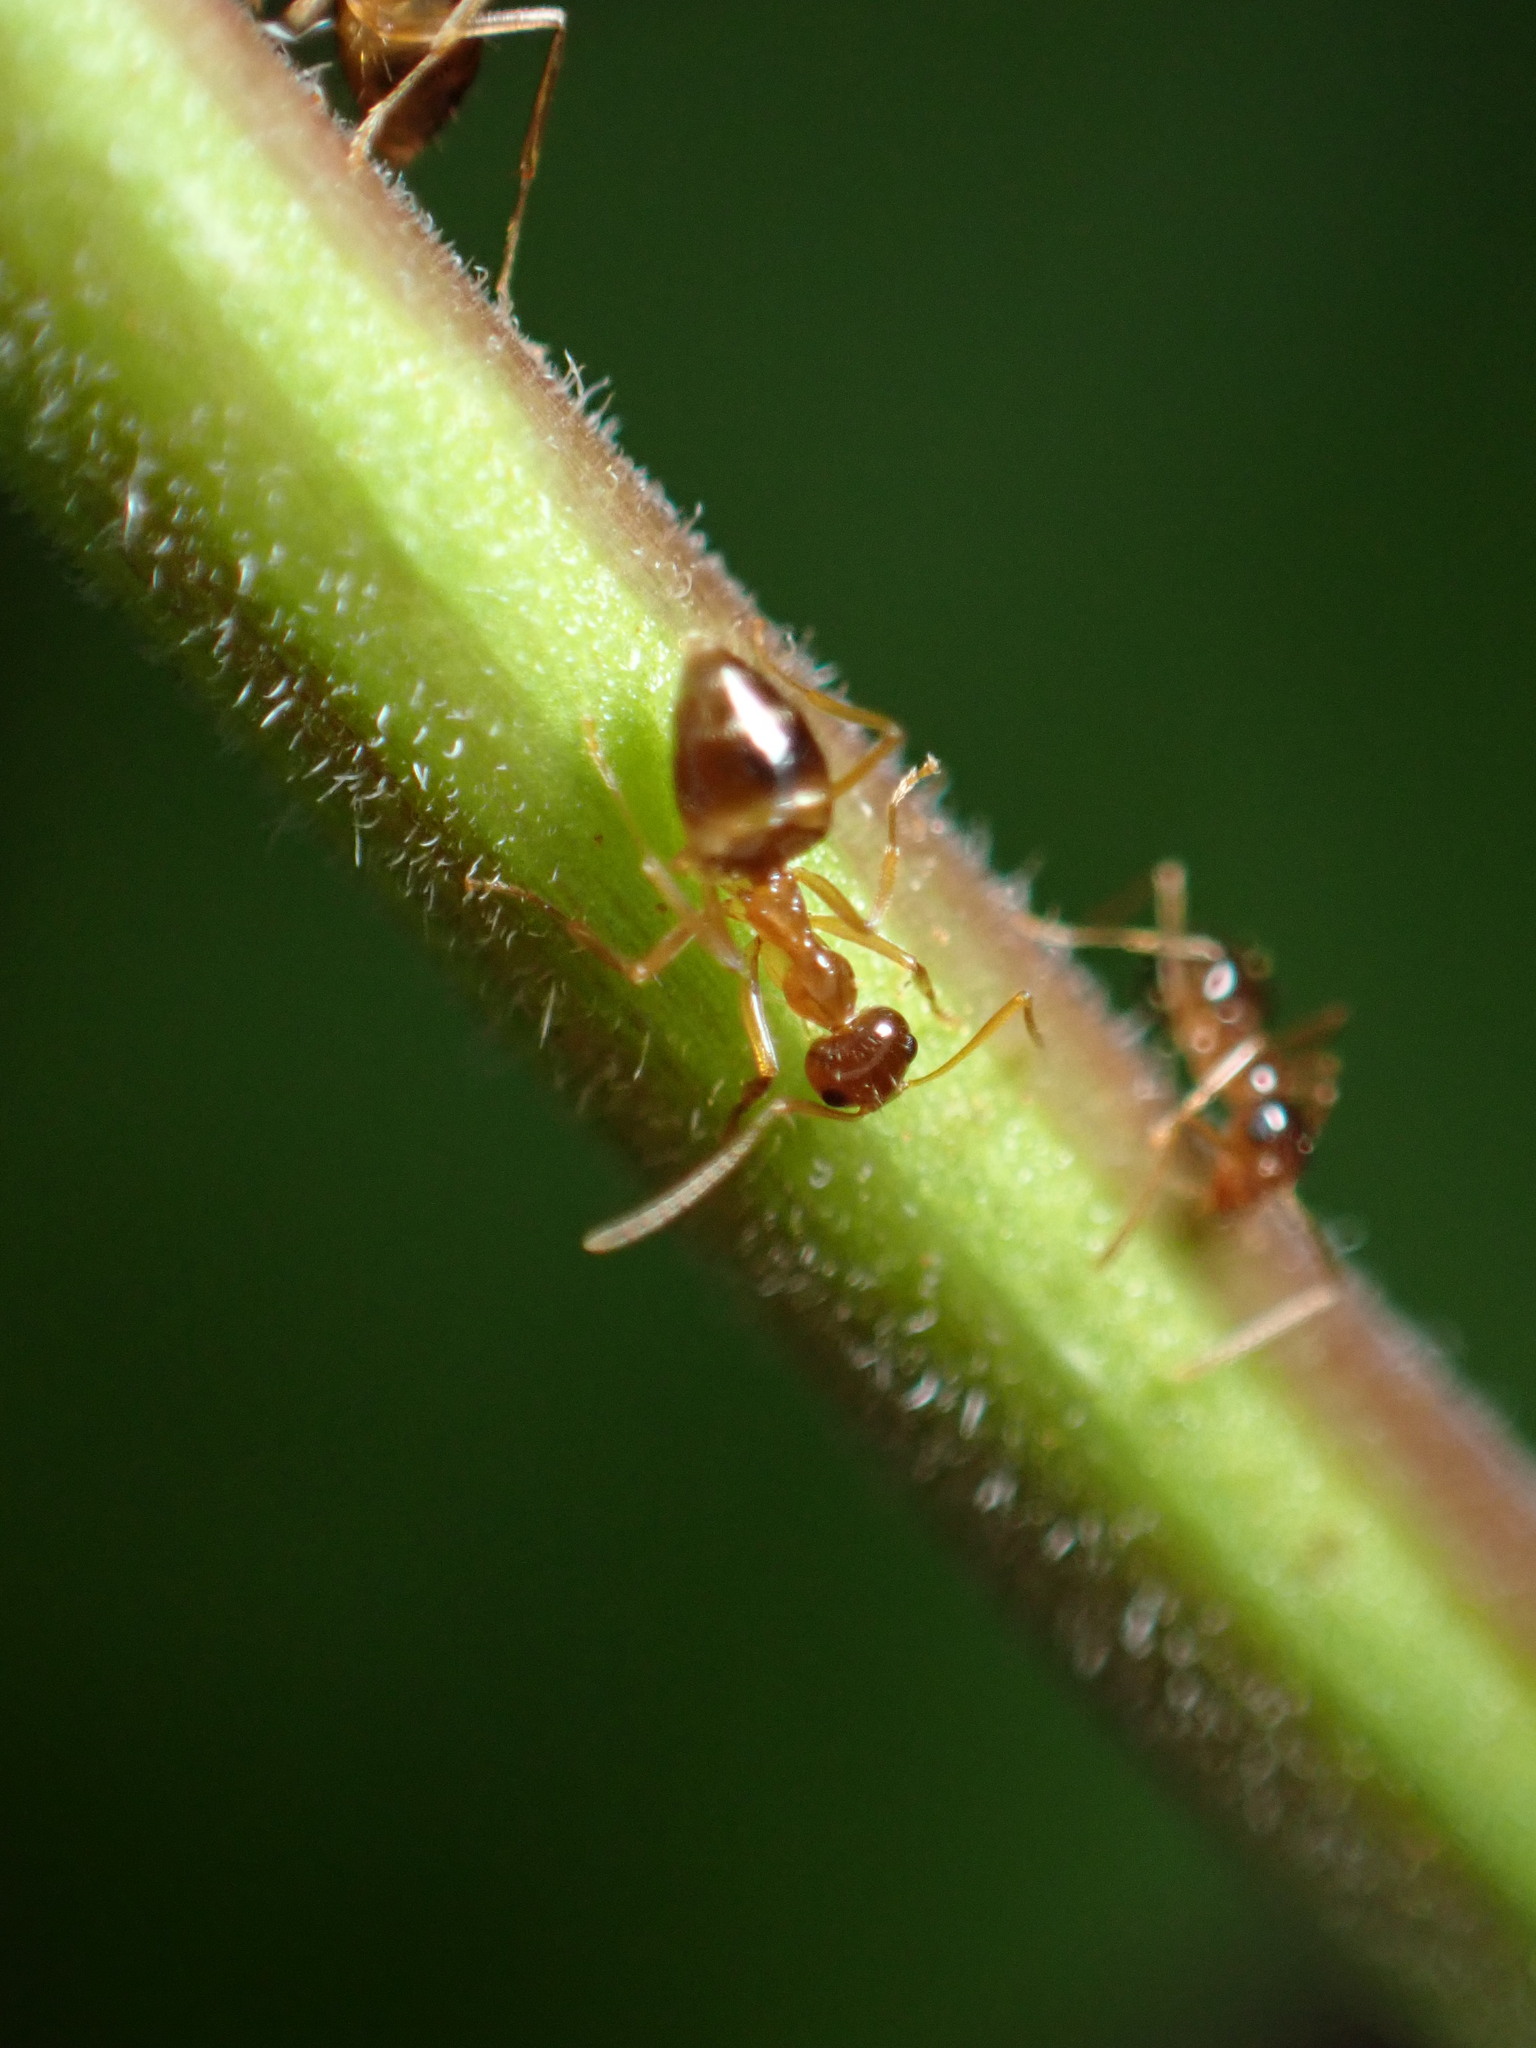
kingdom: Animalia
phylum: Arthropoda
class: Insecta
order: Hymenoptera
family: Formicidae
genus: Prenolepis
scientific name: Prenolepis imparis
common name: Small honey ant
